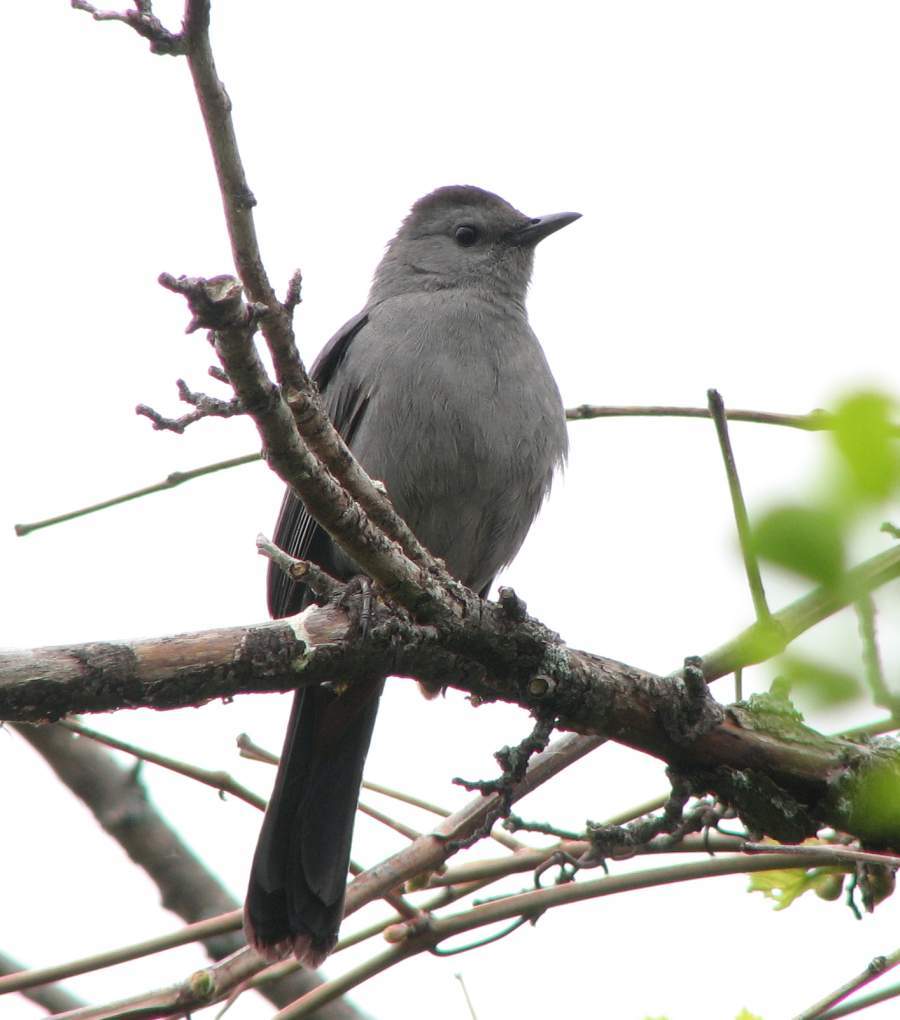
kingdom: Animalia
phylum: Chordata
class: Aves
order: Passeriformes
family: Mimidae
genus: Dumetella
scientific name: Dumetella carolinensis
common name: Gray catbird
